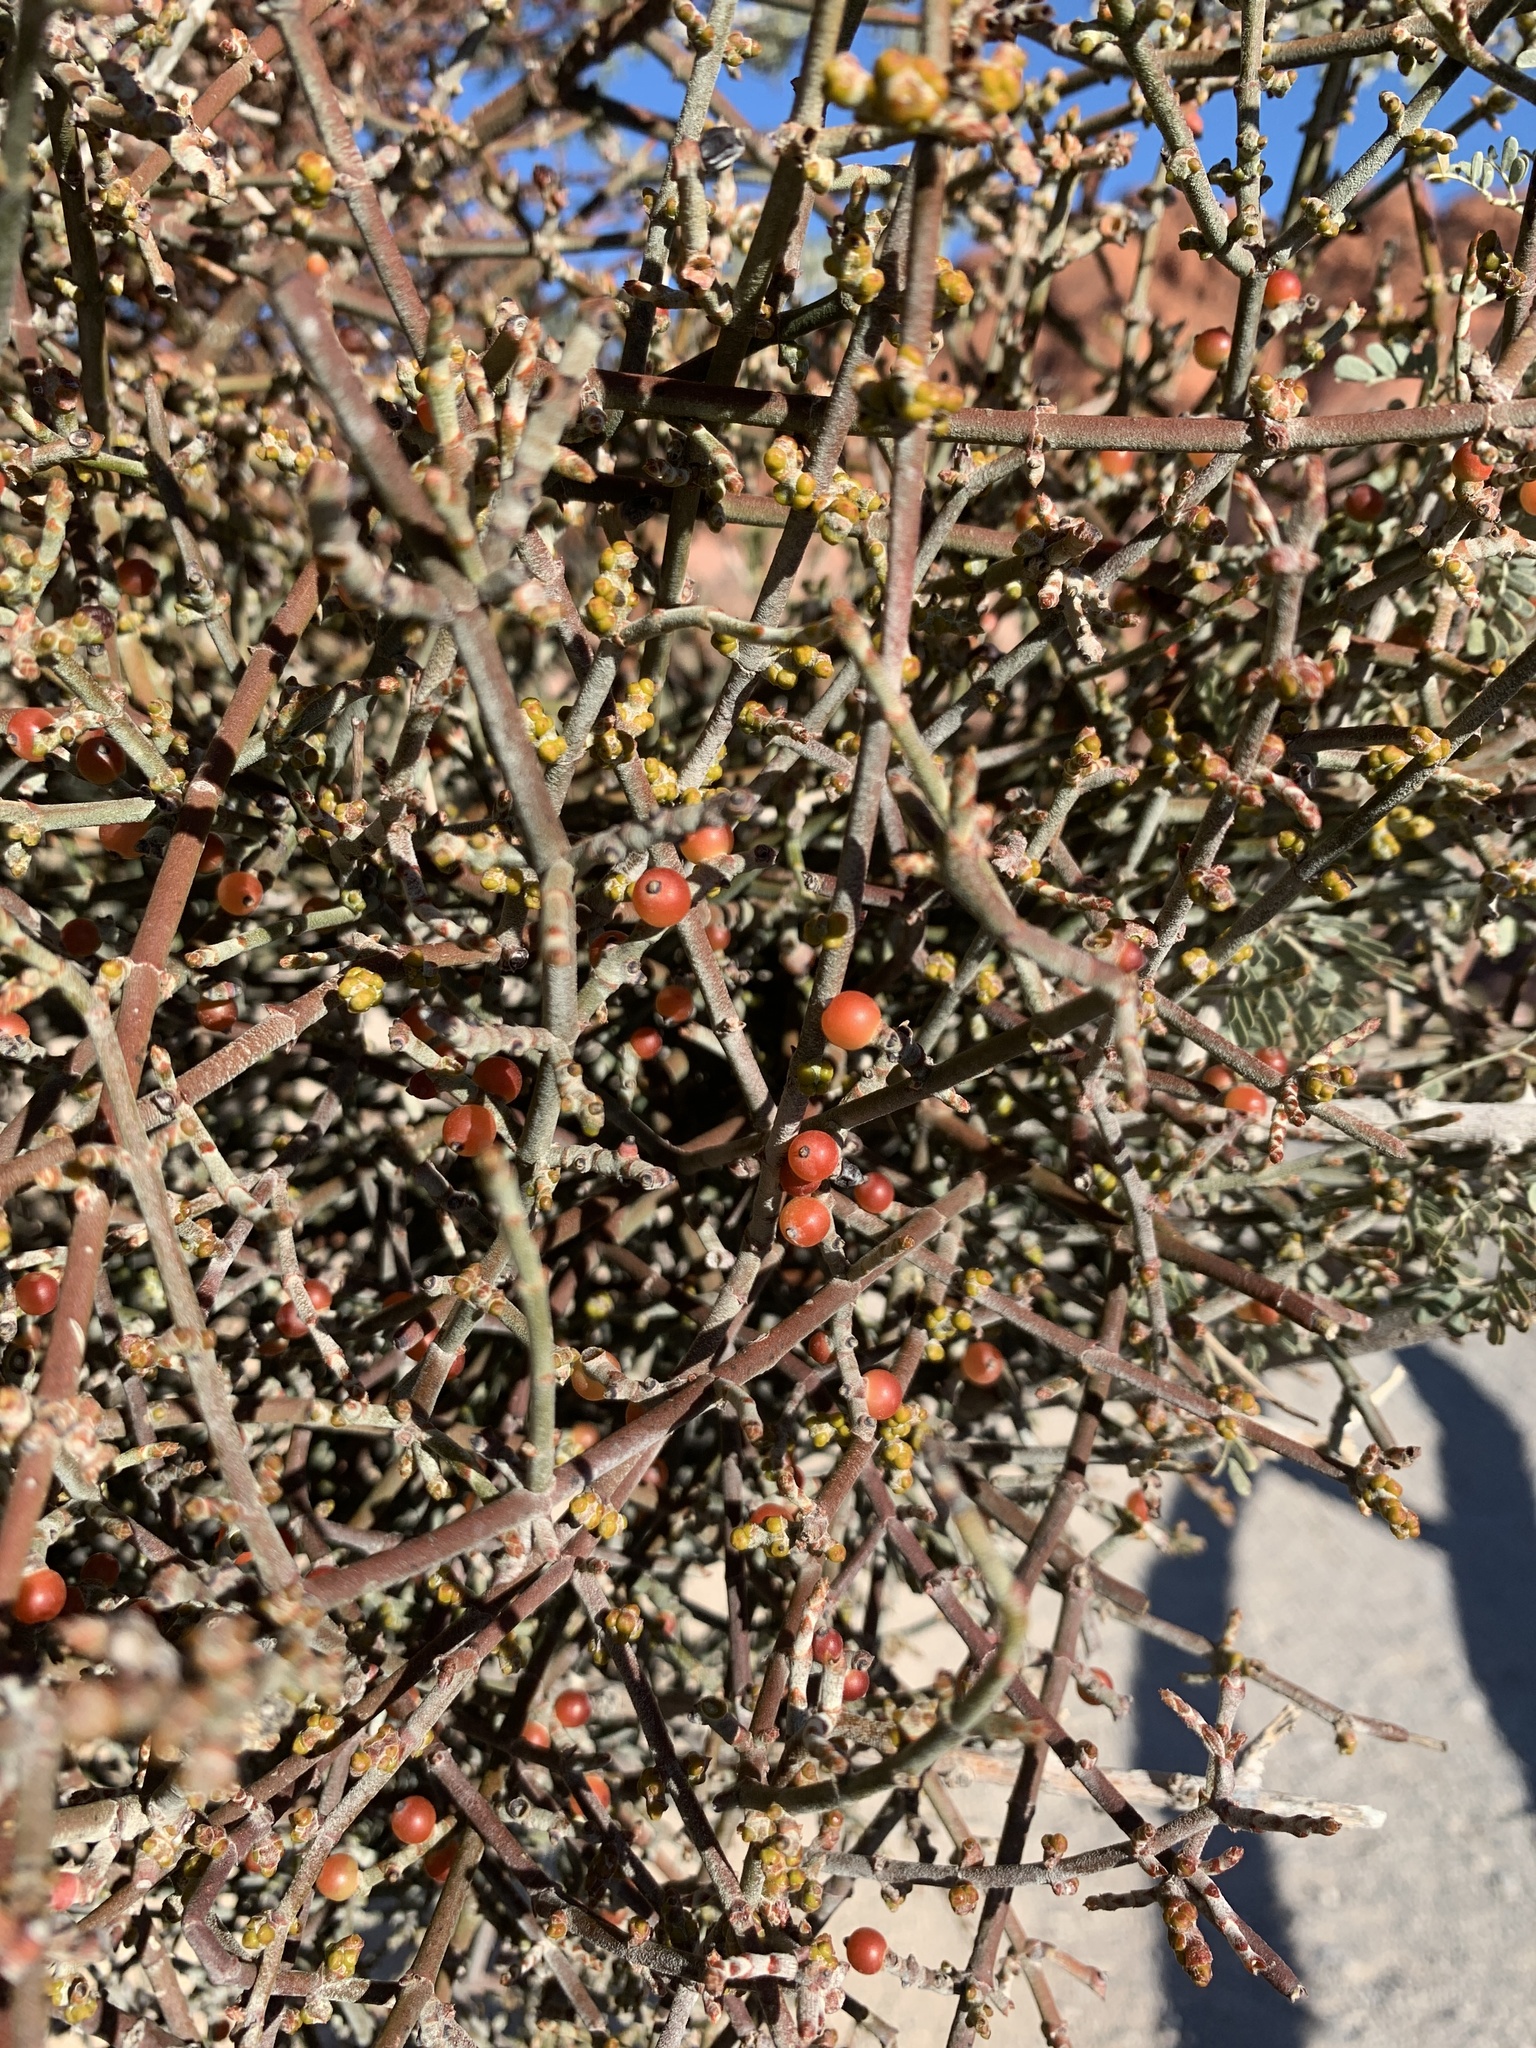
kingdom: Plantae
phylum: Tracheophyta
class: Magnoliopsida
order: Santalales
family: Viscaceae
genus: Phoradendron
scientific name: Phoradendron californicum
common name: Acacia mistletoe
